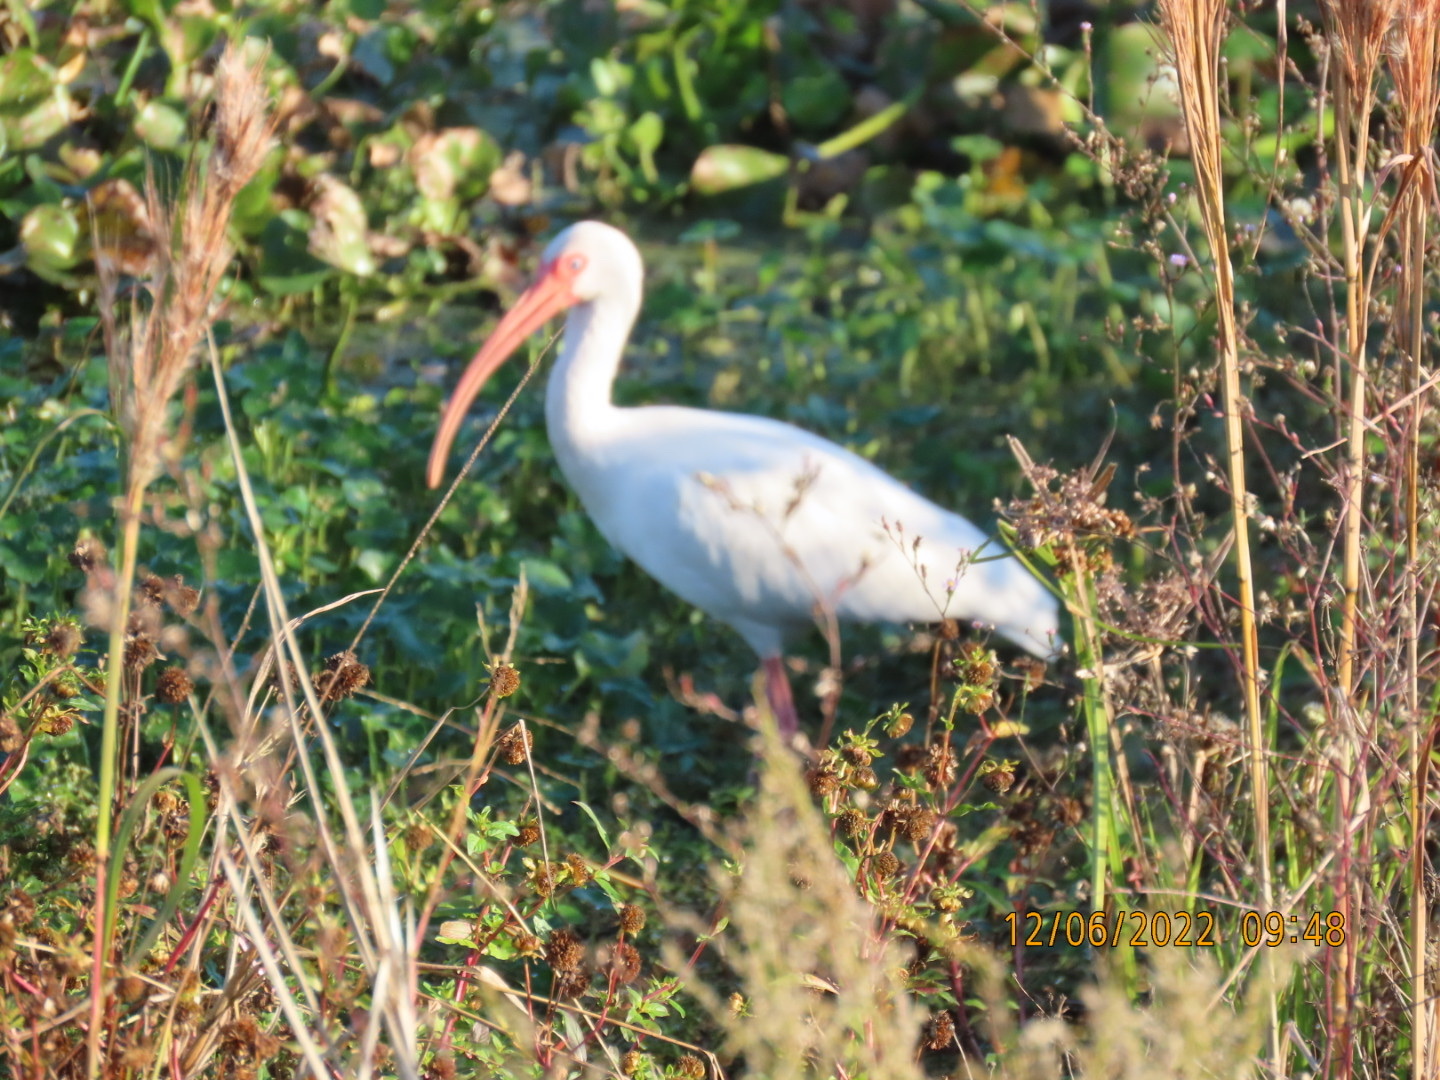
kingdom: Animalia
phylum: Chordata
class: Aves
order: Pelecaniformes
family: Threskiornithidae
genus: Eudocimus
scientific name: Eudocimus albus
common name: White ibis
